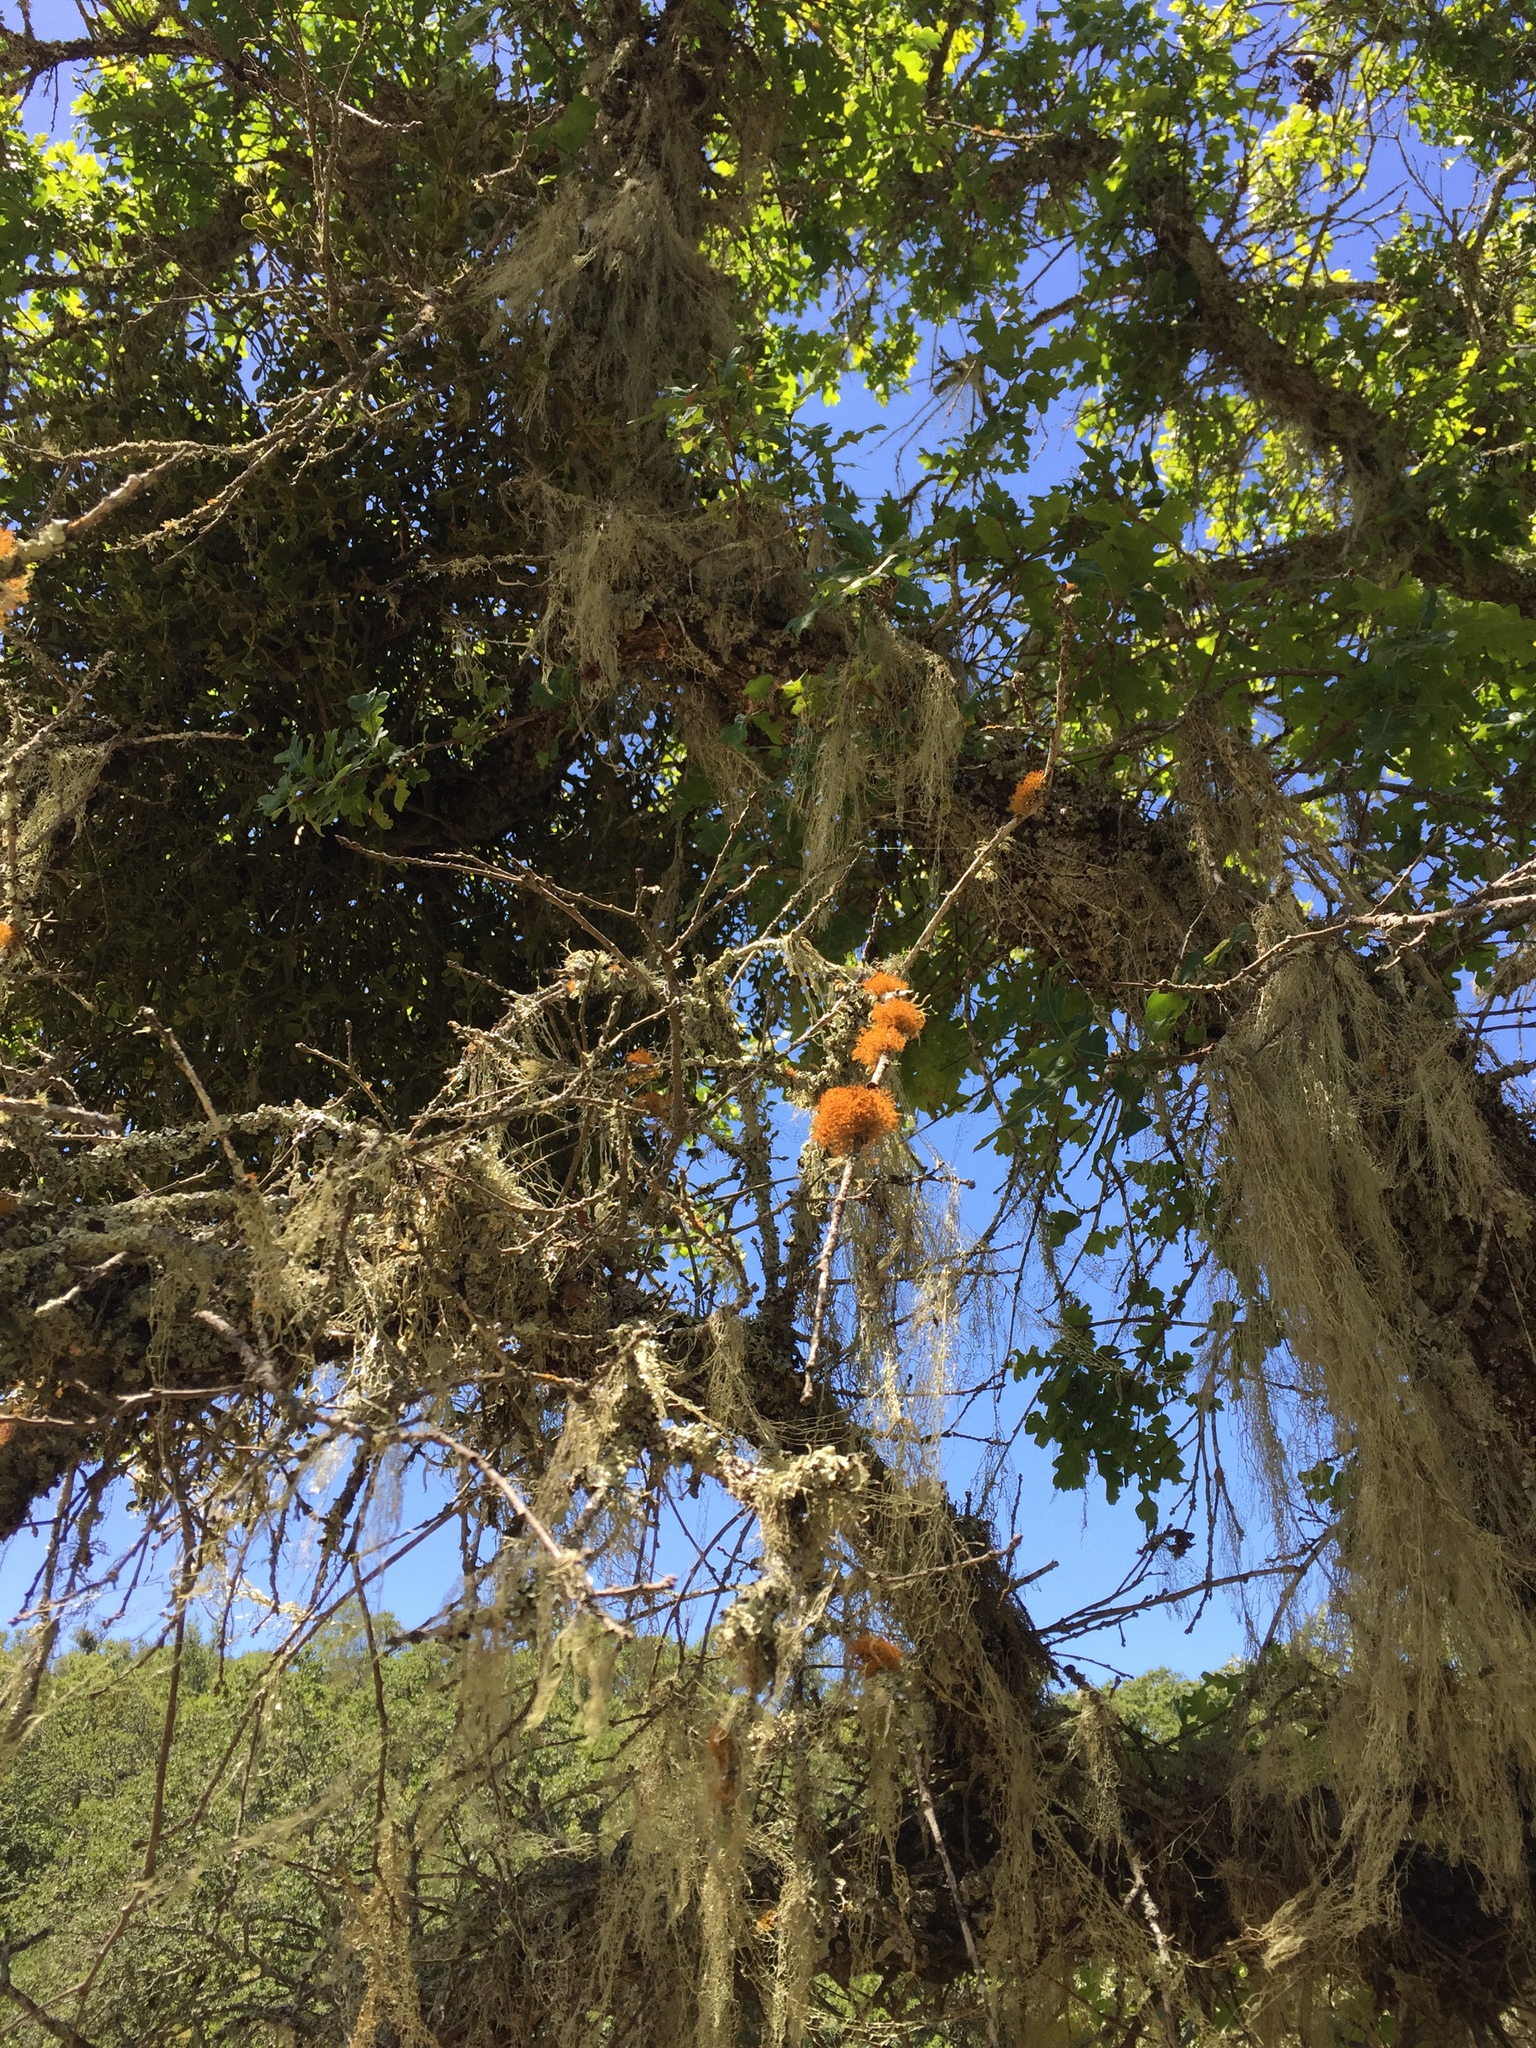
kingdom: Fungi
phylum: Ascomycota
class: Lecanoromycetes
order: Teloschistales
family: Teloschistaceae
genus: Teloschistes
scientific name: Teloschistes flavicans
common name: Golden hair-lichen
